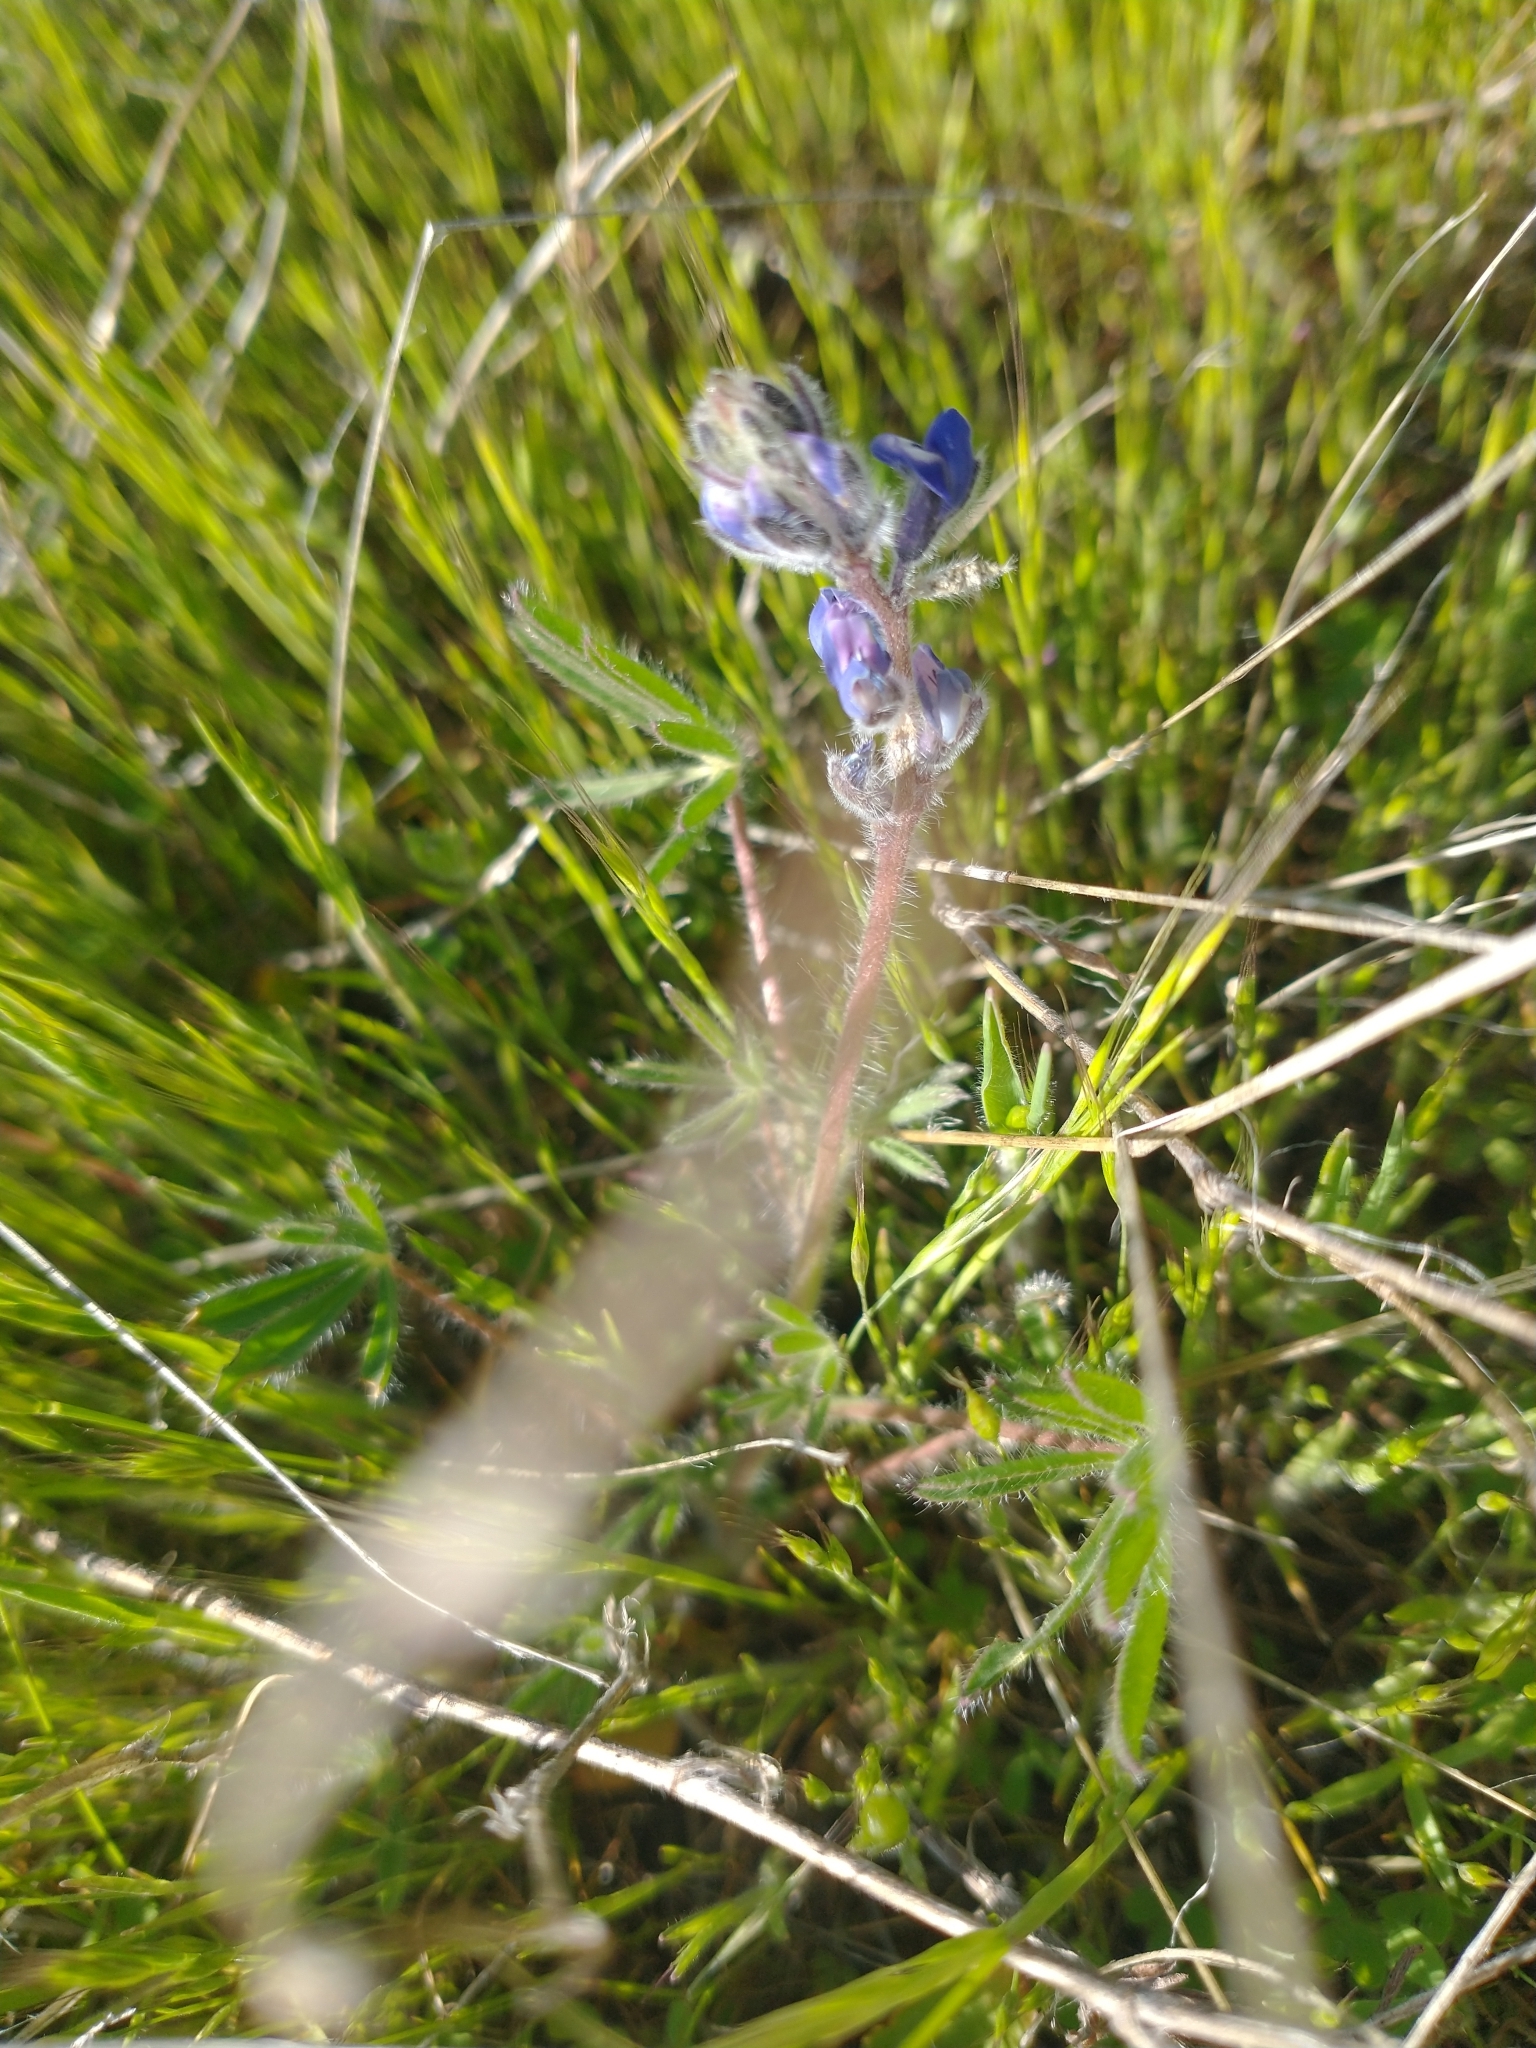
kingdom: Plantae
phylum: Tracheophyta
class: Magnoliopsida
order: Fabales
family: Fabaceae
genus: Lupinus
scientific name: Lupinus bicolor
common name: Miniature lupine
